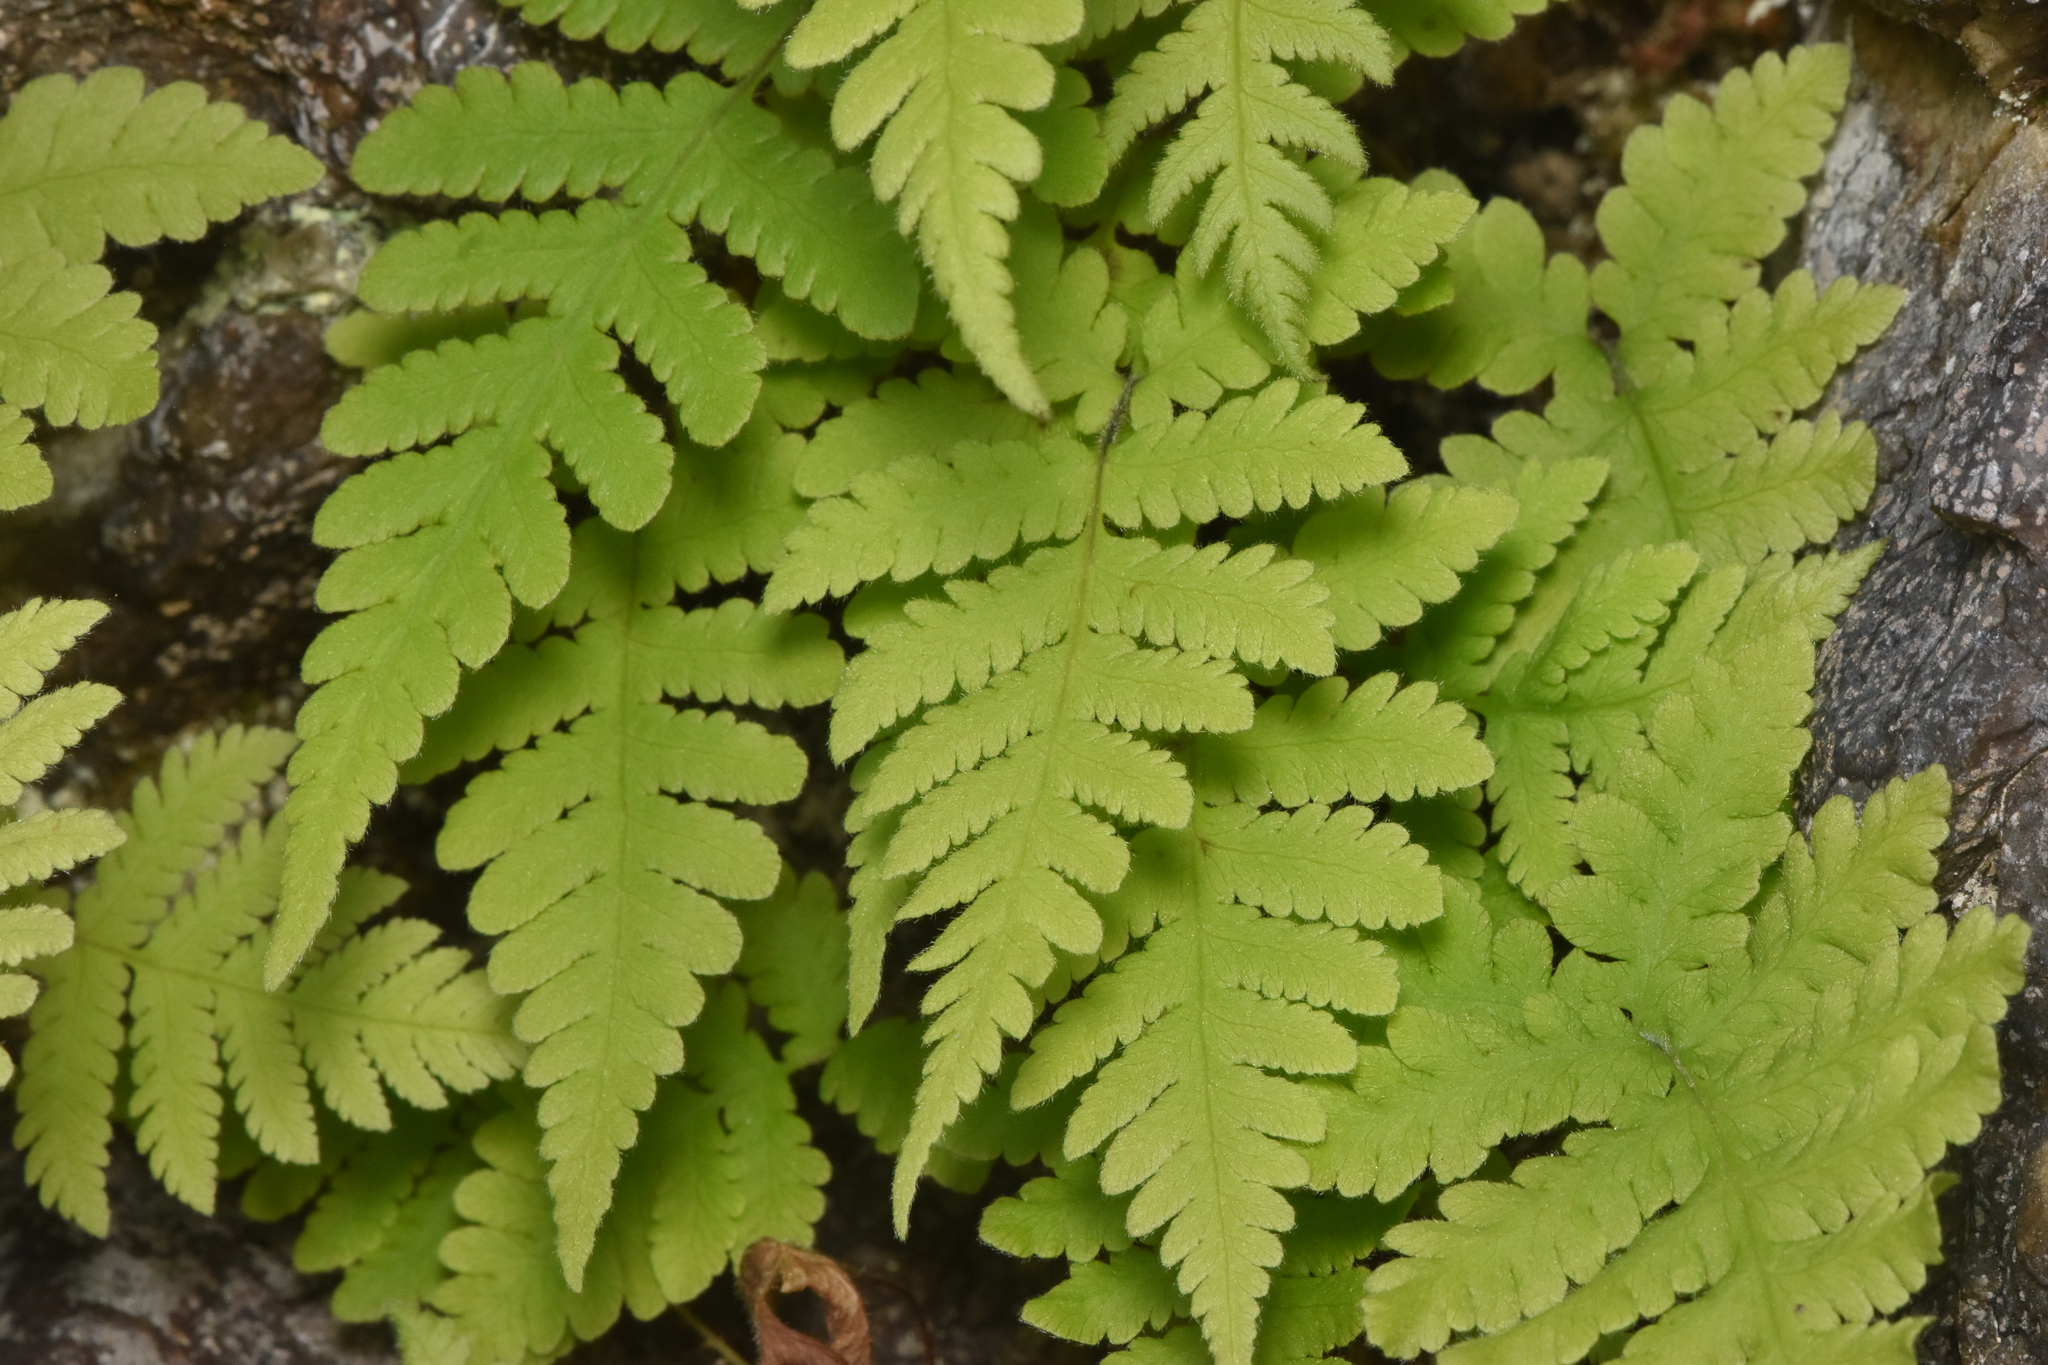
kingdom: Plantae
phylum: Tracheophyta
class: Polypodiopsida
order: Polypodiales
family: Thelypteridaceae
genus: Phegopteris
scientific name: Phegopteris connectilis
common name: Beech fern
